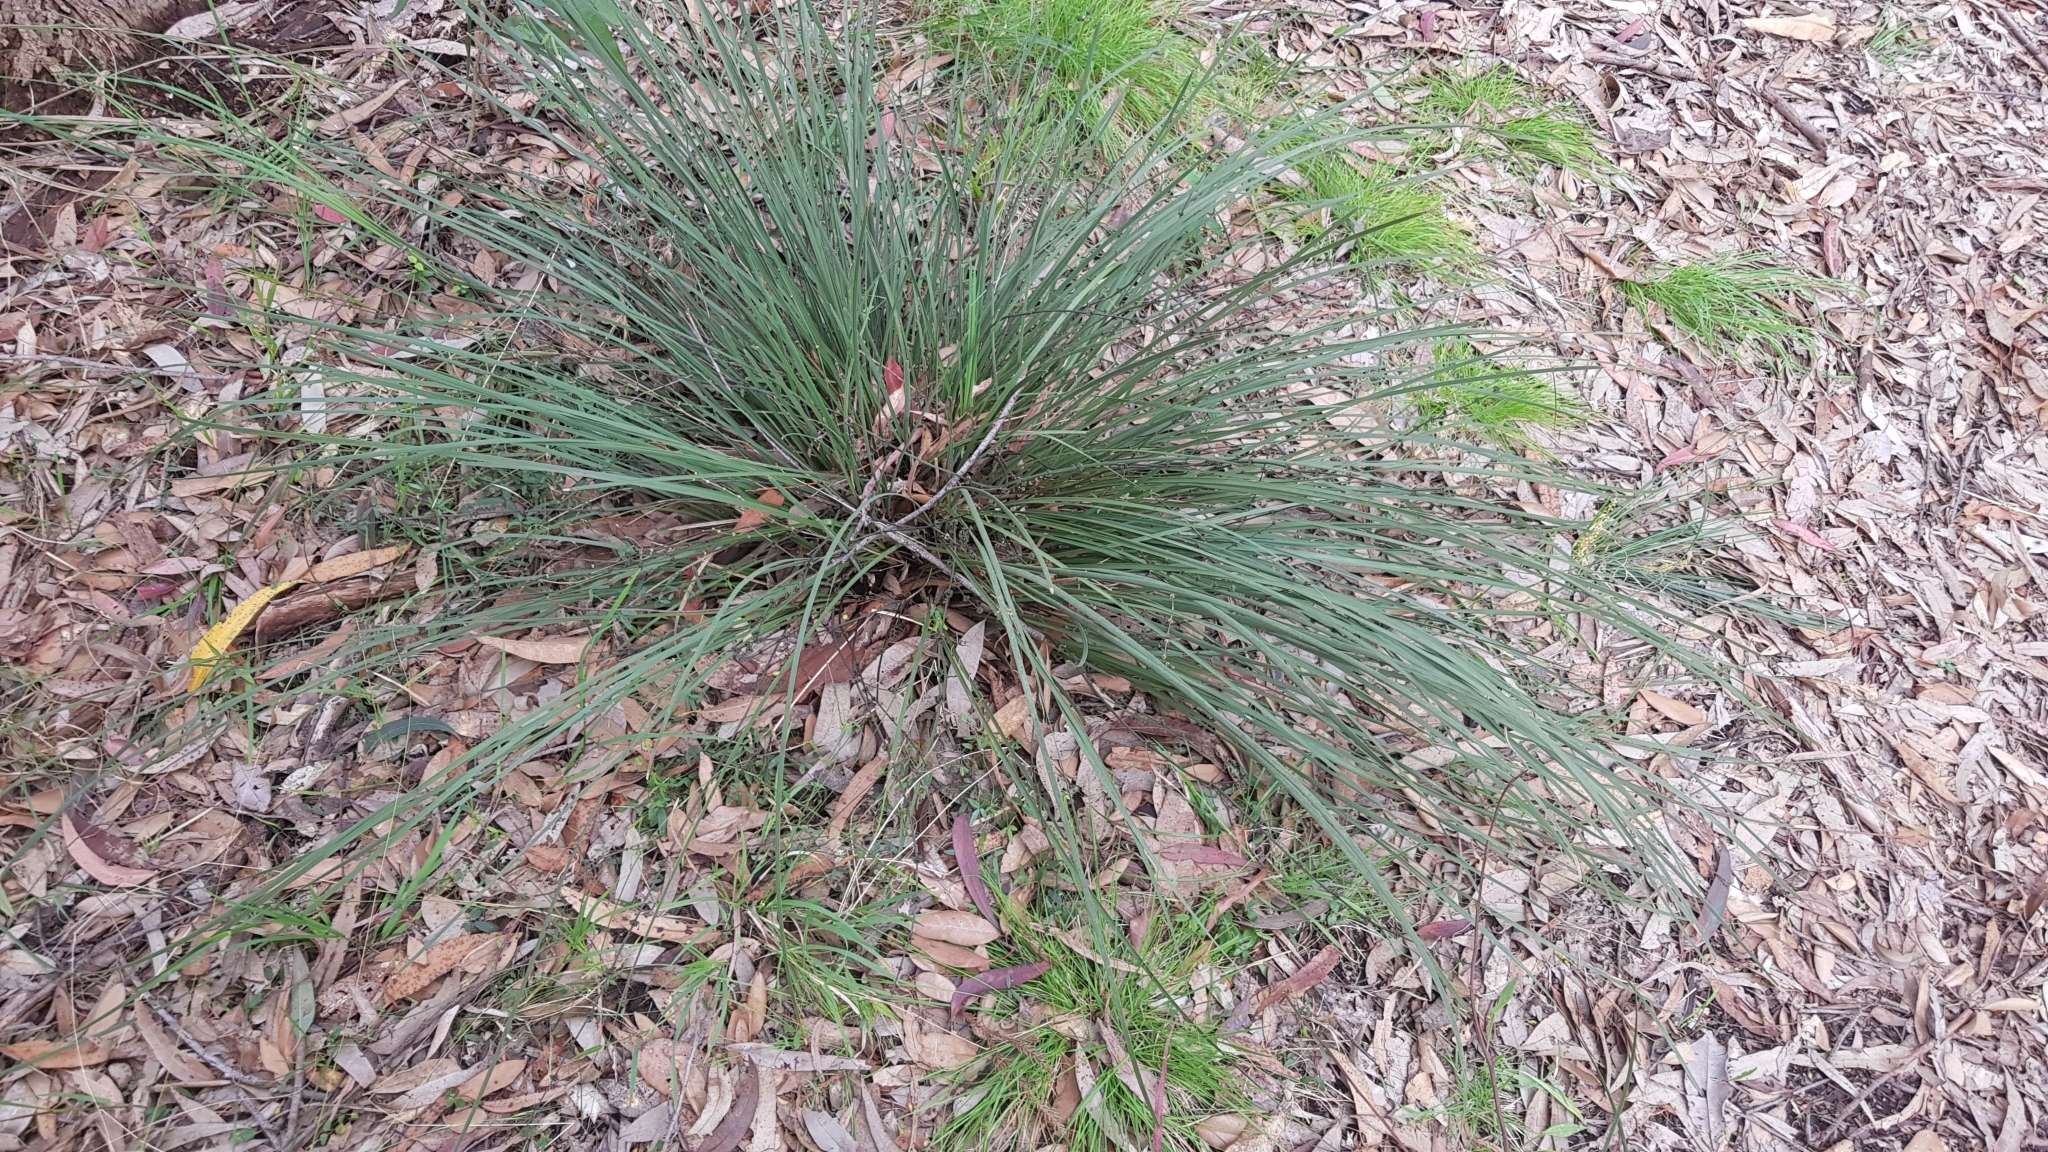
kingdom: Plantae
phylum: Tracheophyta
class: Liliopsida
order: Asparagales
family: Asparagaceae
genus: Lomandra
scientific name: Lomandra multiflora
